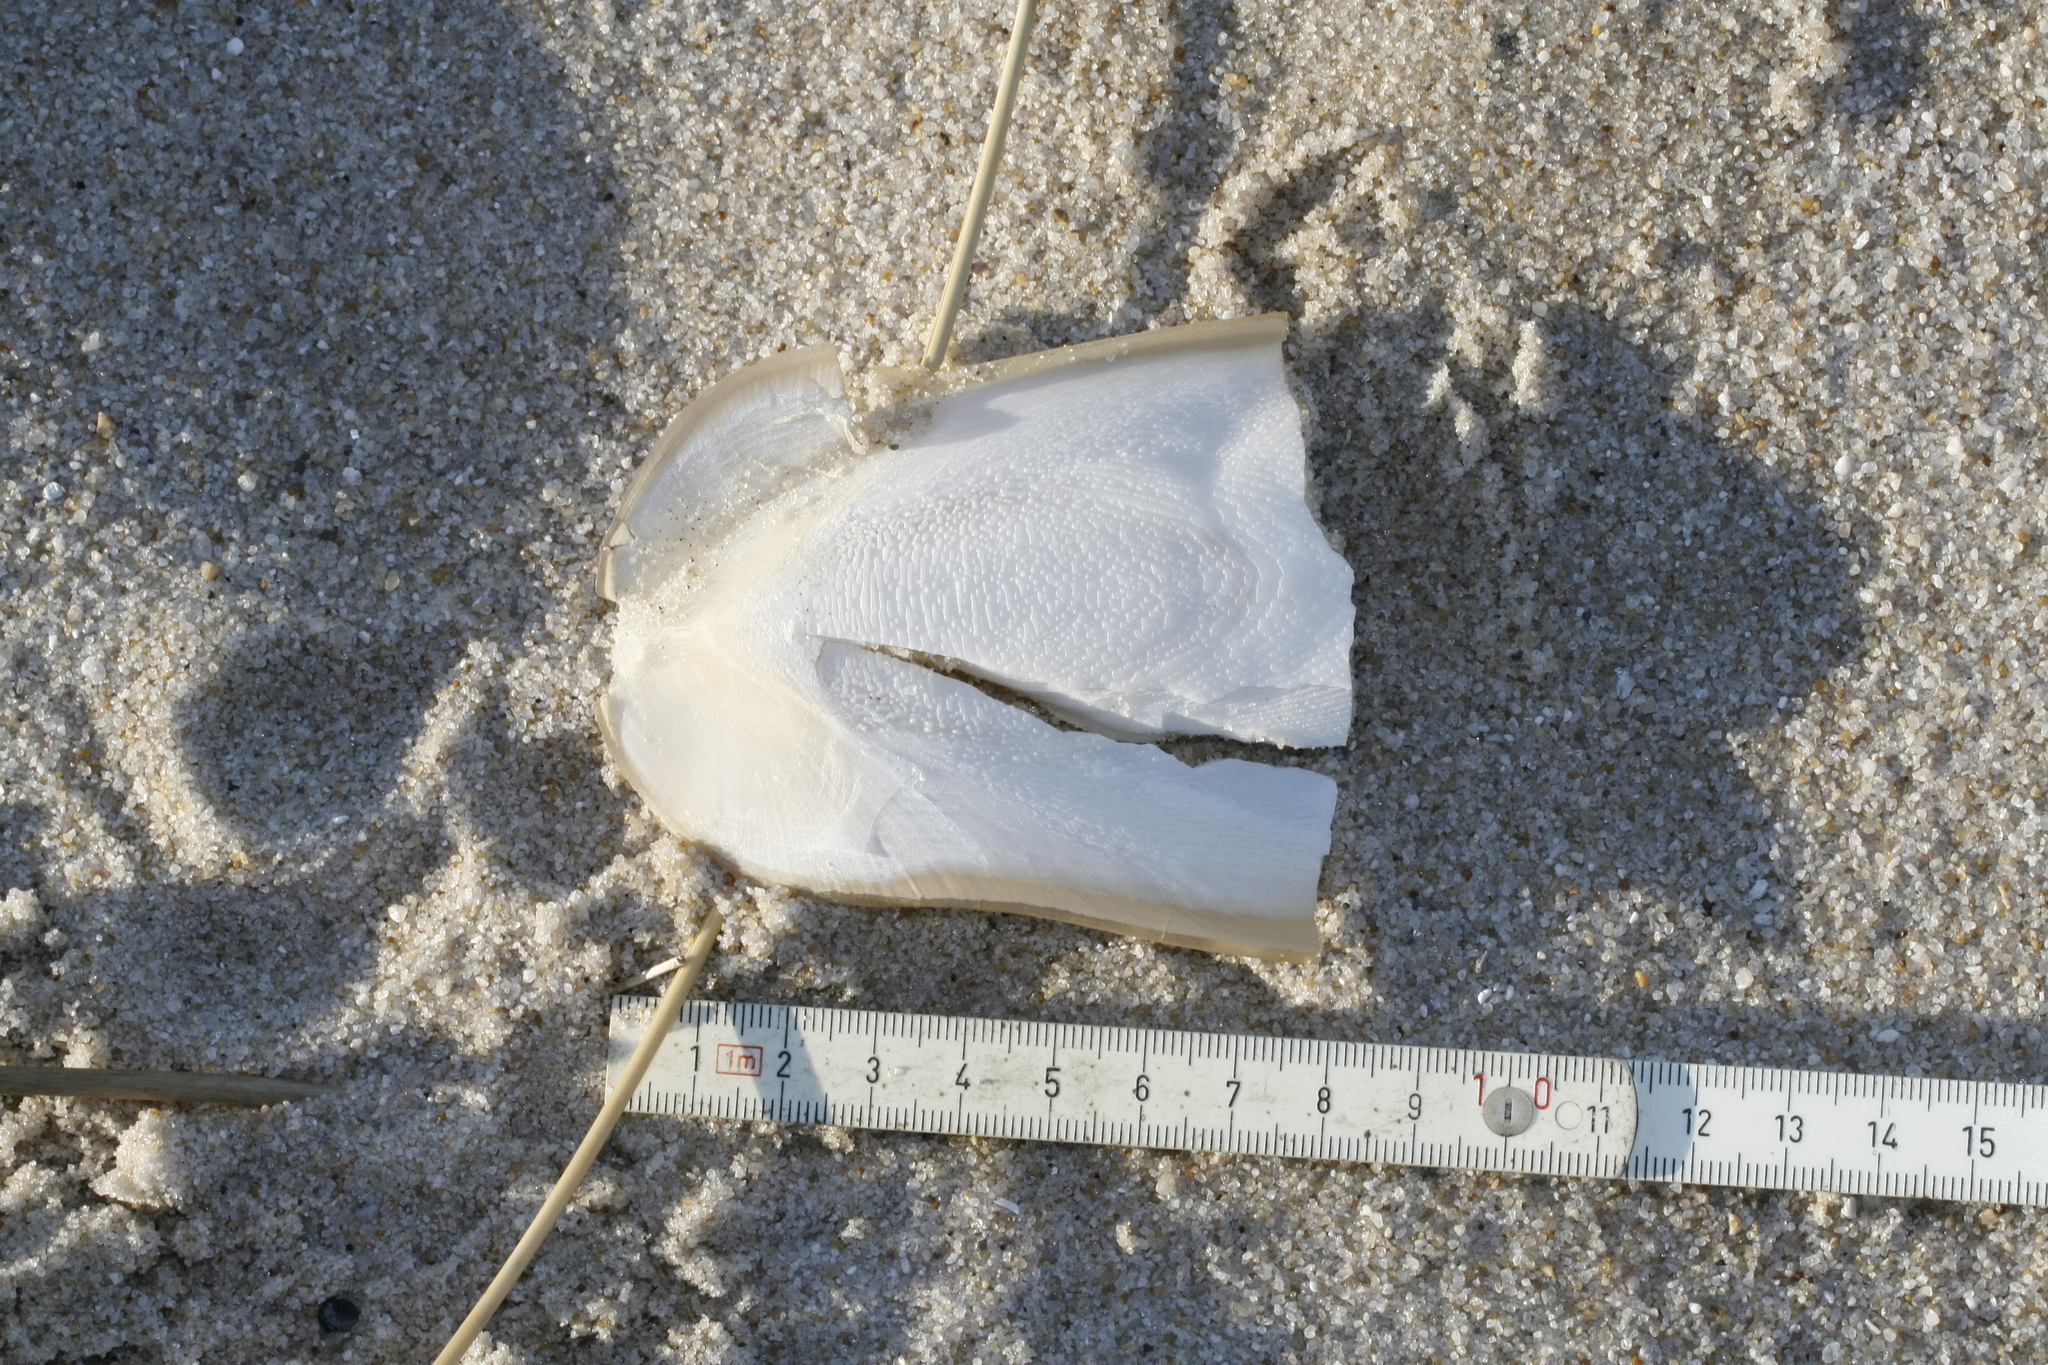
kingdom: Animalia
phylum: Mollusca
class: Cephalopoda
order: Sepiida
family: Sepiidae
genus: Sepia
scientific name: Sepia officinalis
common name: Common cuttlefish
